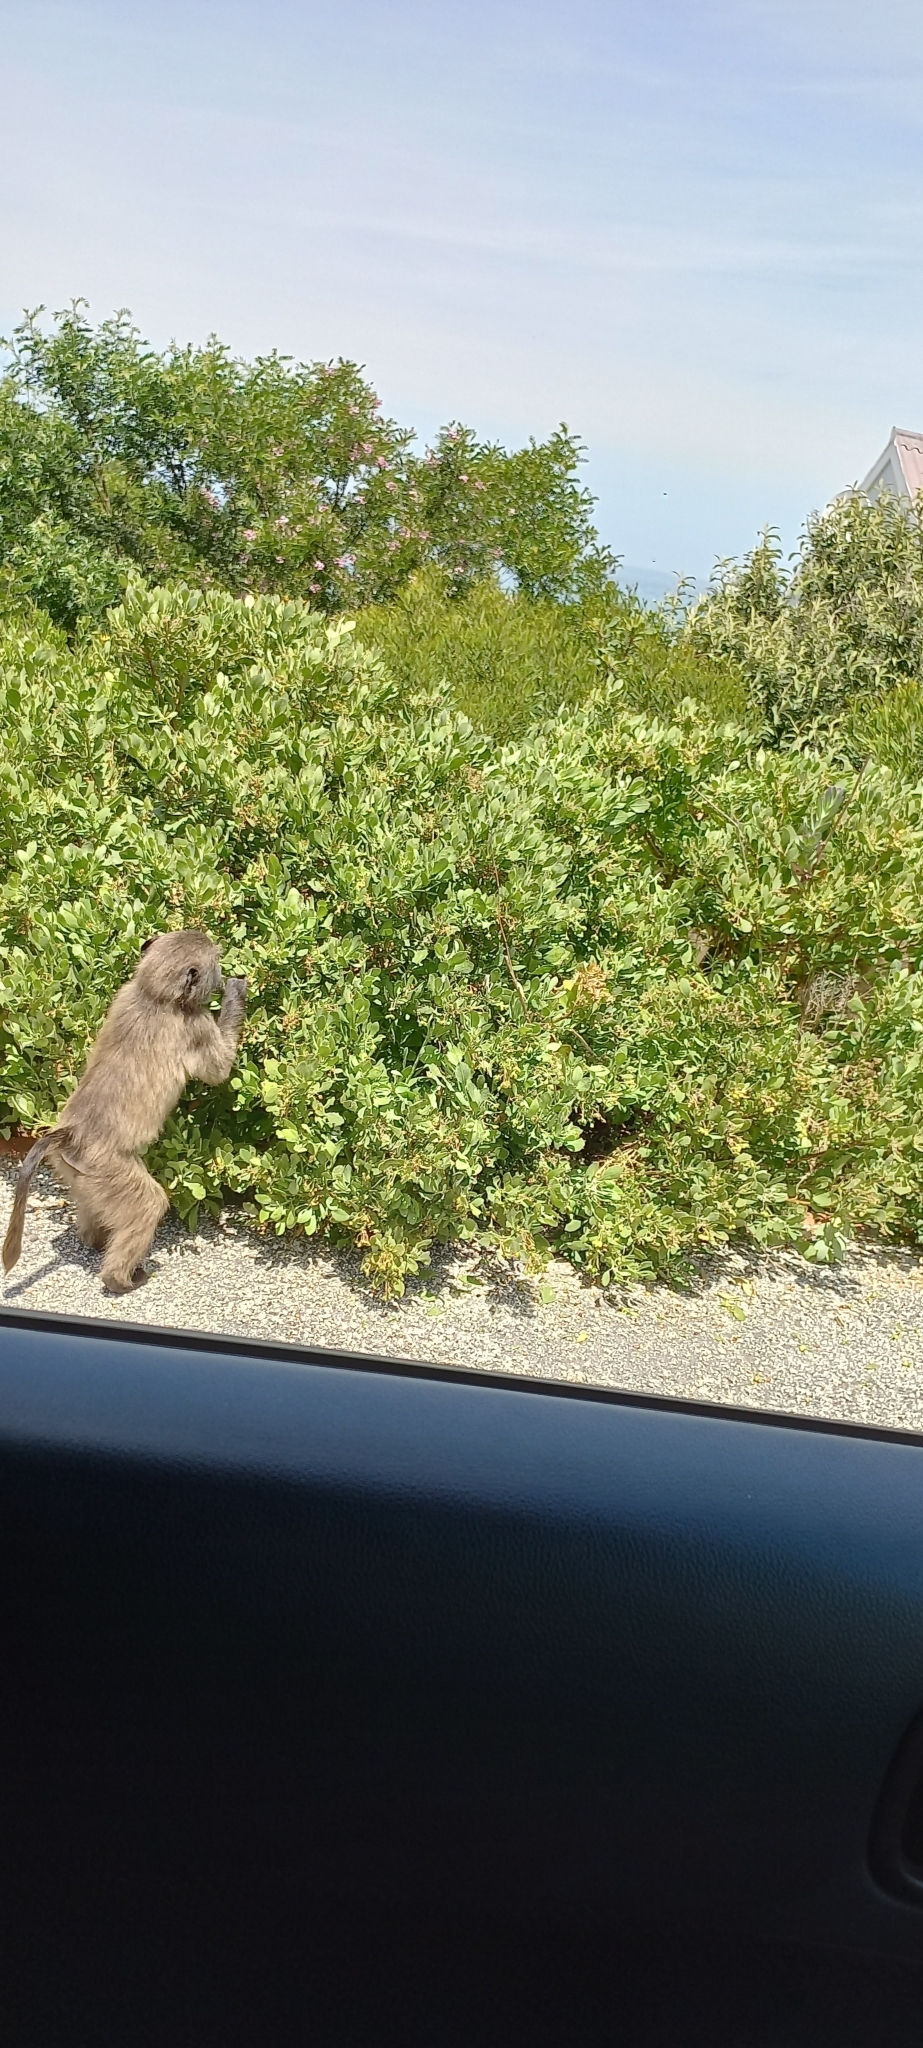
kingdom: Animalia
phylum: Chordata
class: Mammalia
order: Primates
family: Cercopithecidae
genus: Papio
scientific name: Papio ursinus
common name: Chacma baboon
